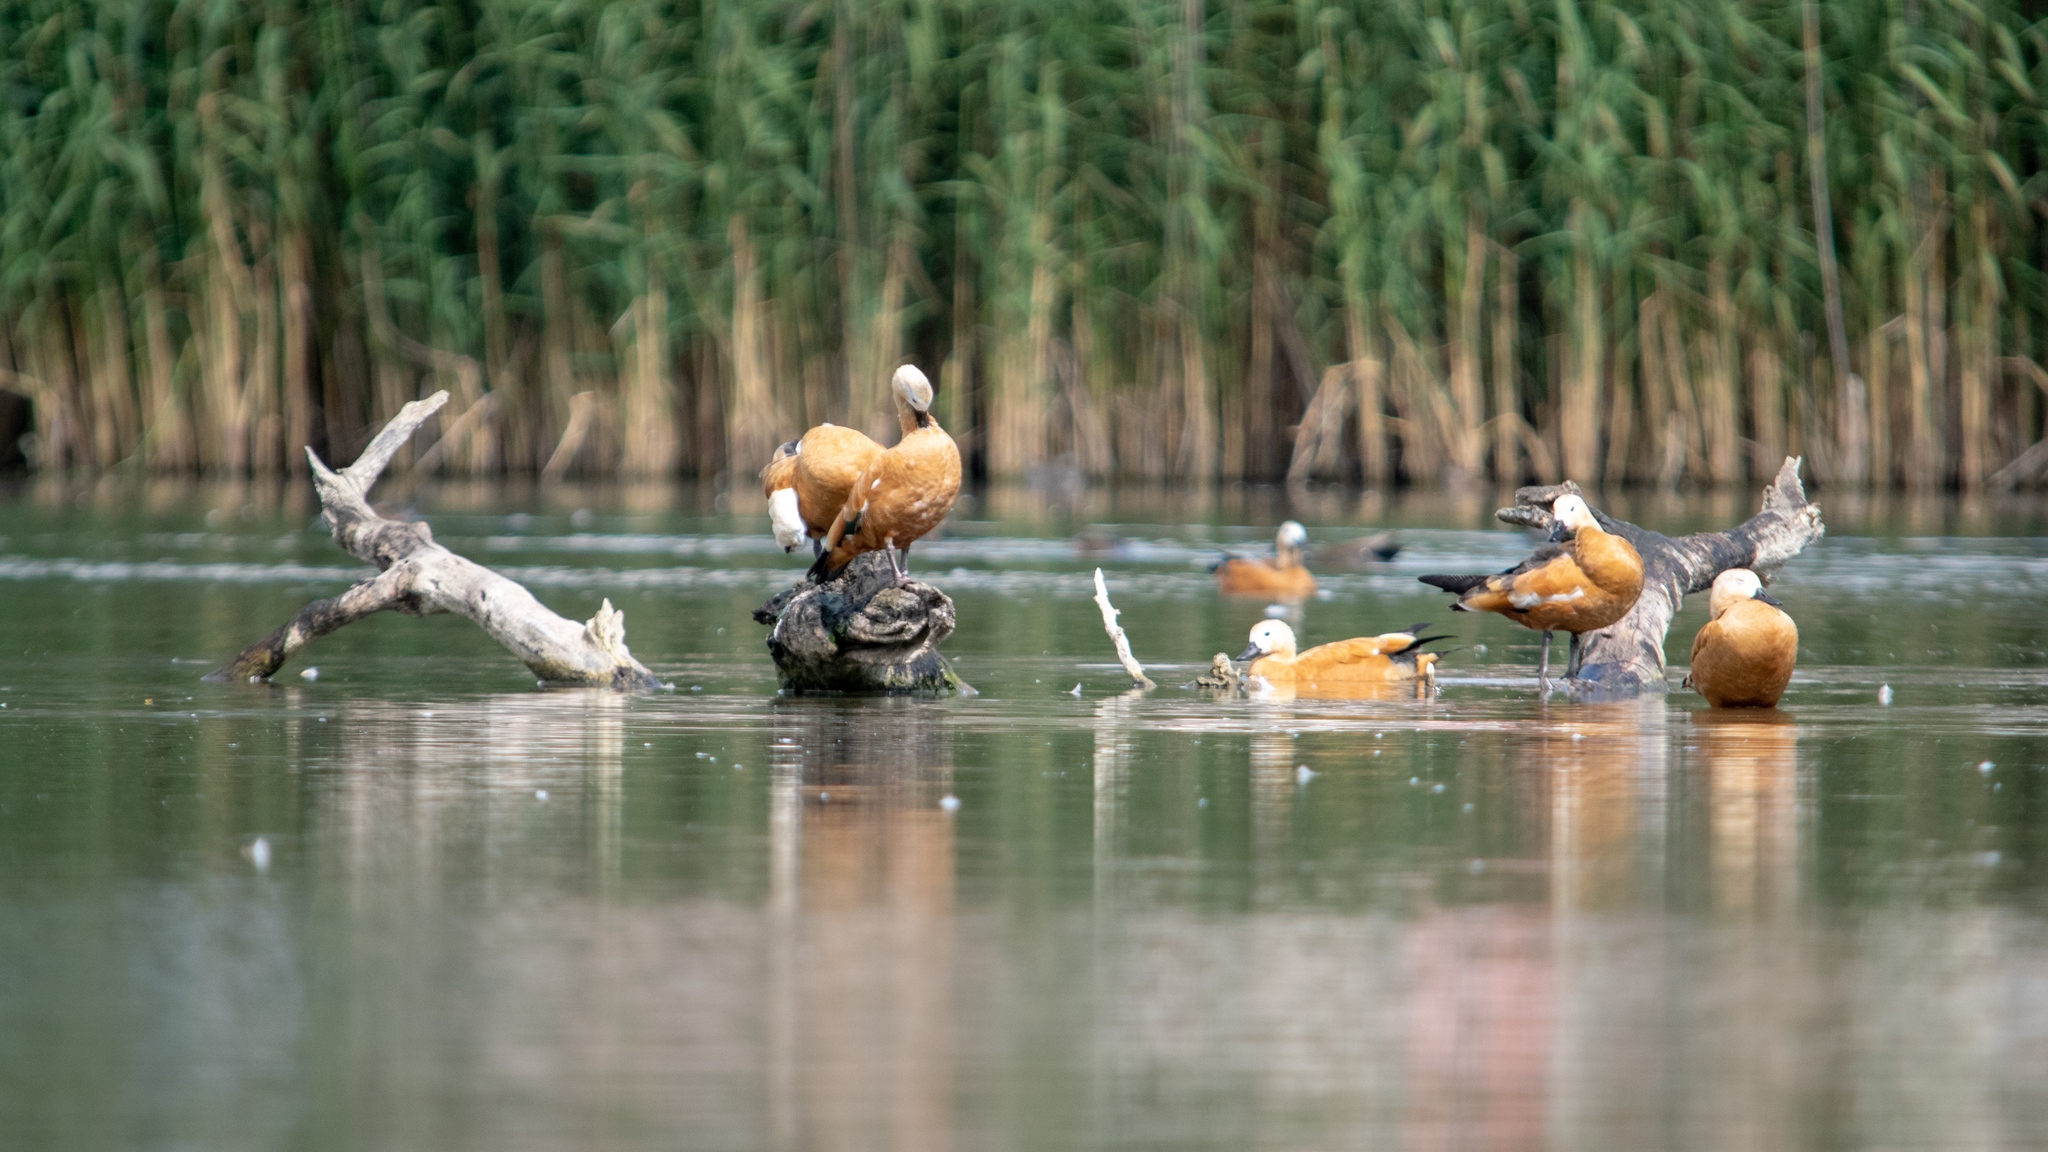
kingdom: Animalia
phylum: Chordata
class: Aves
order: Anseriformes
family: Anatidae
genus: Tadorna
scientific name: Tadorna ferruginea
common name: Ruddy shelduck
